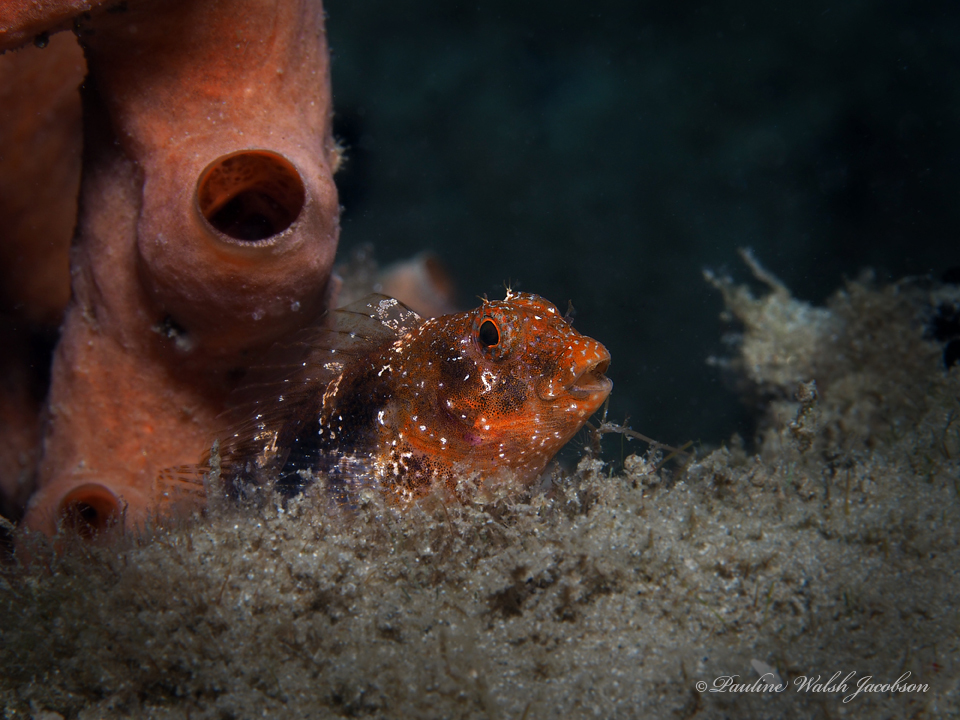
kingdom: Animalia
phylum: Chordata
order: Perciformes
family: Blenniidae
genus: Hypleurochilus
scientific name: Hypleurochilus bermudensis
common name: Barred blenny
